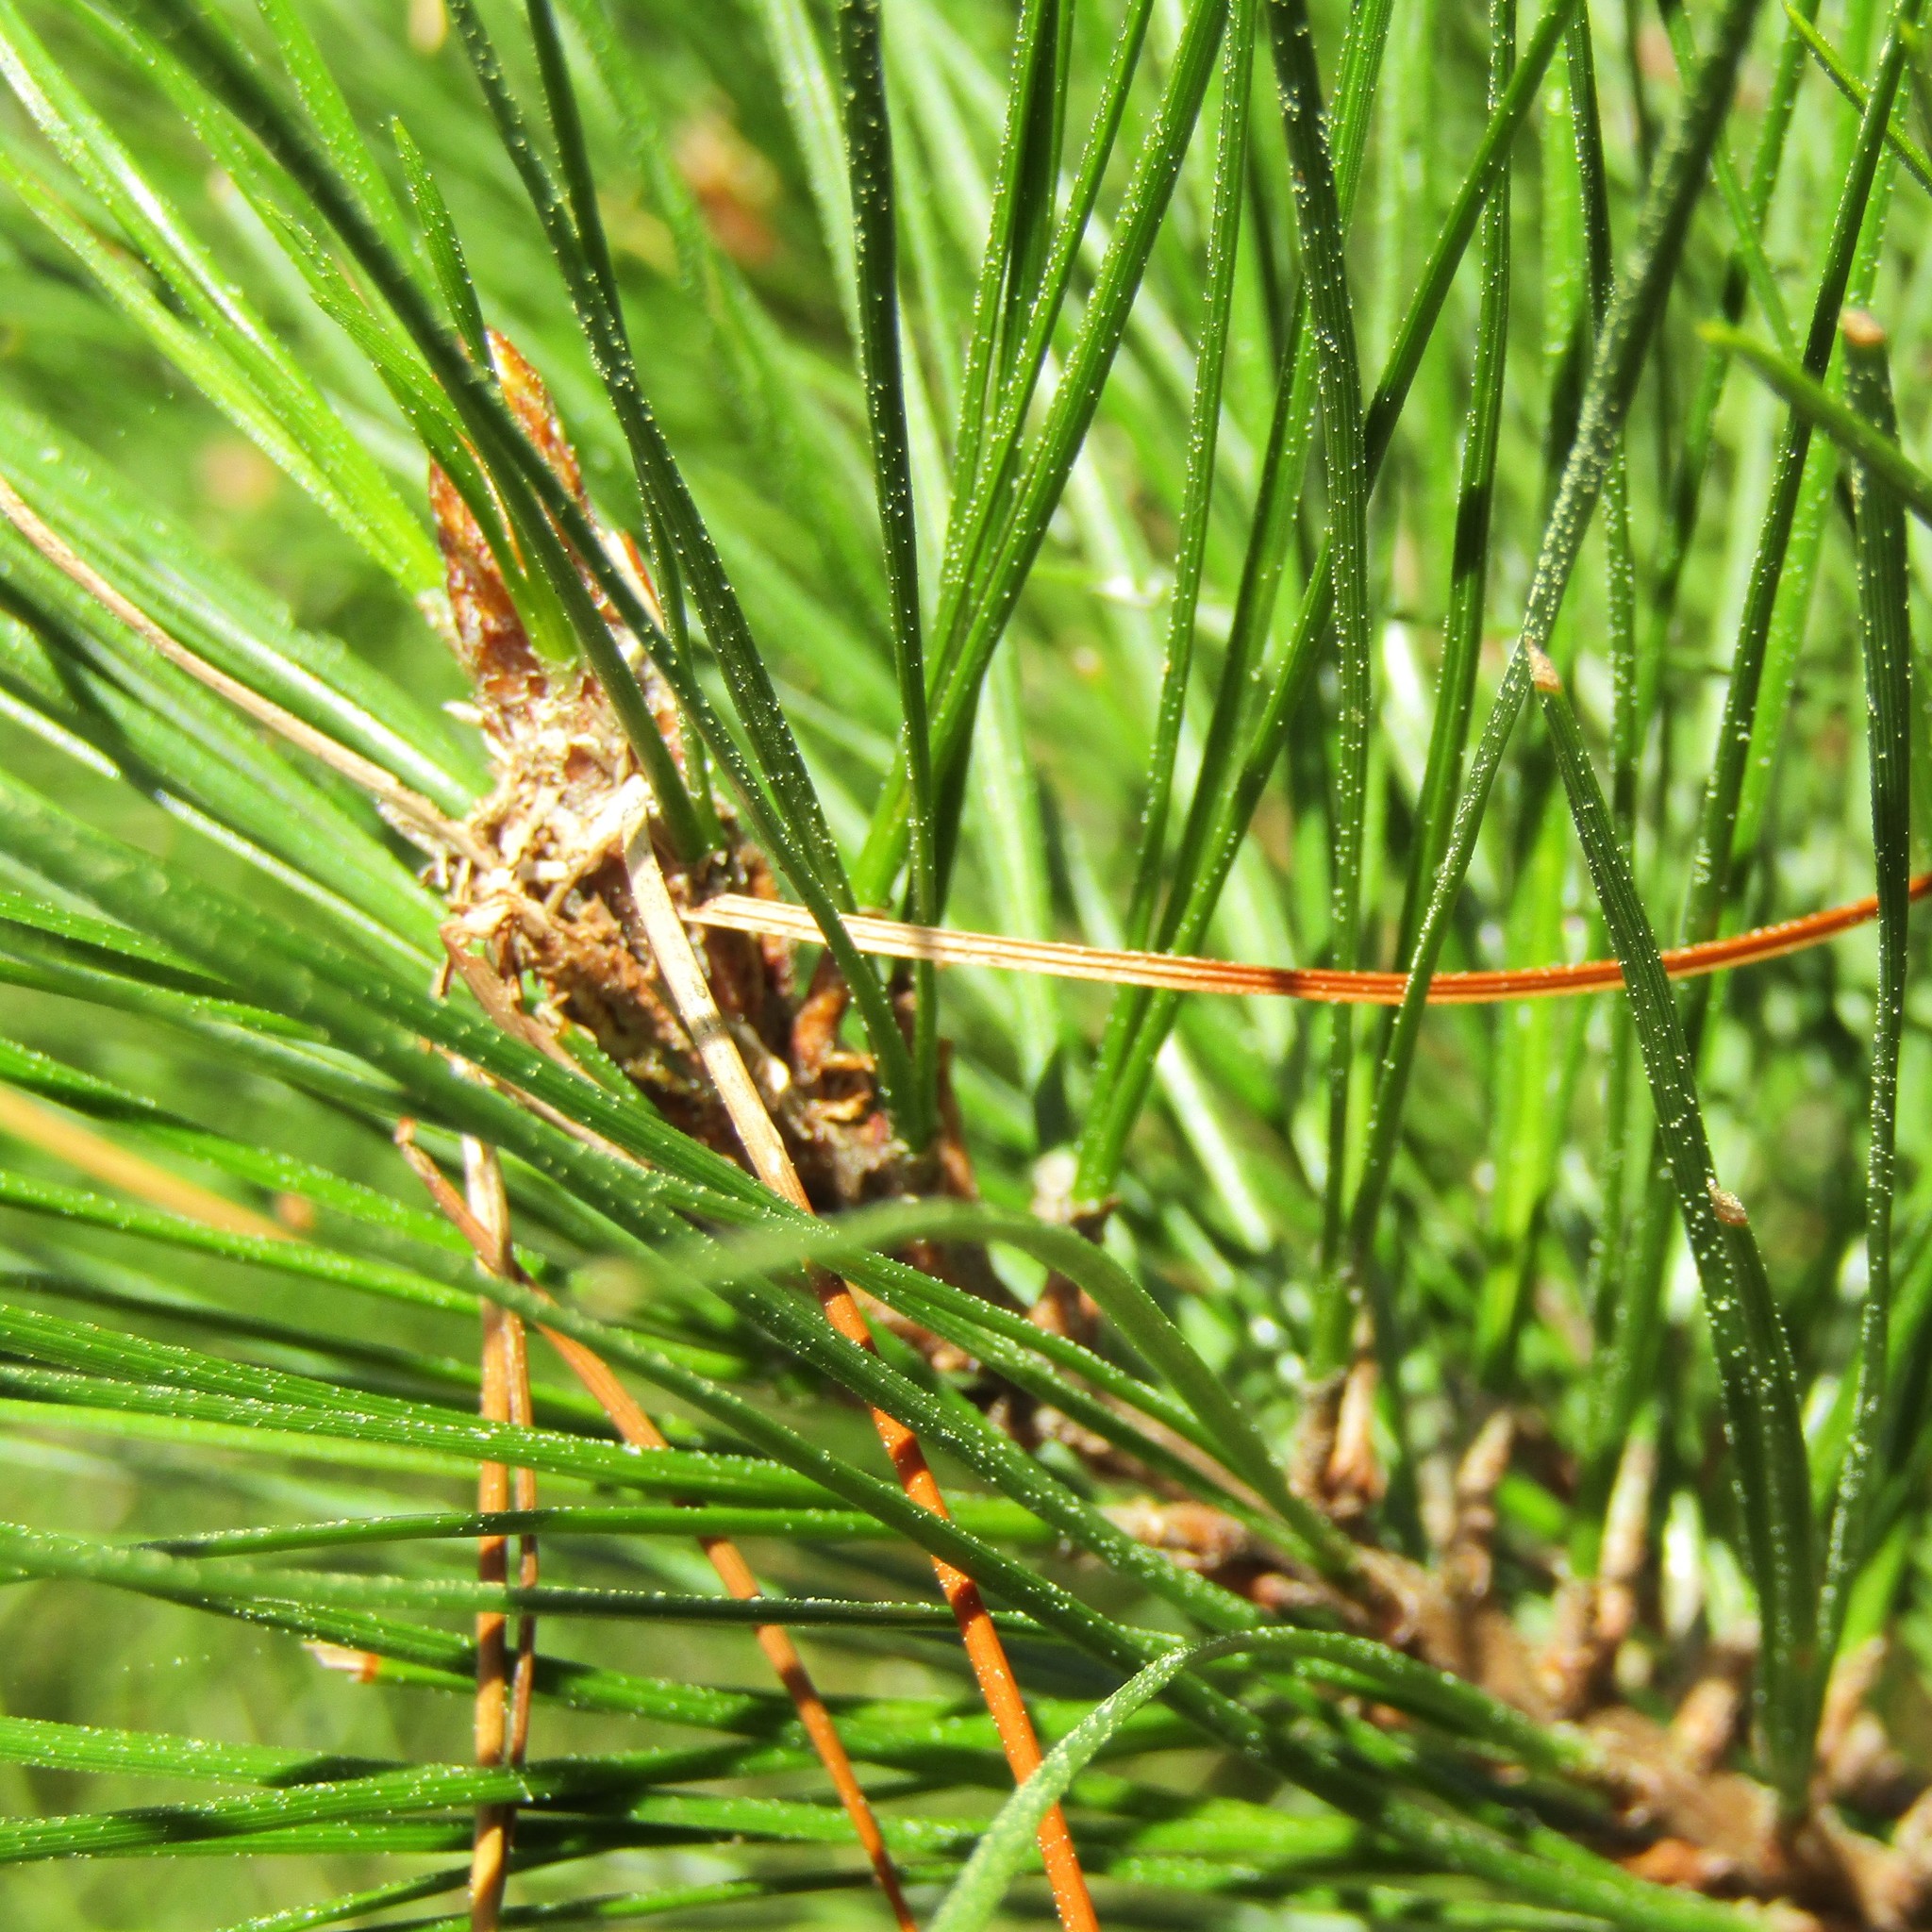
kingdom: Plantae
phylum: Tracheophyta
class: Pinopsida
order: Pinales
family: Pinaceae
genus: Pinus
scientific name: Pinus radiata
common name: Monterey pine
